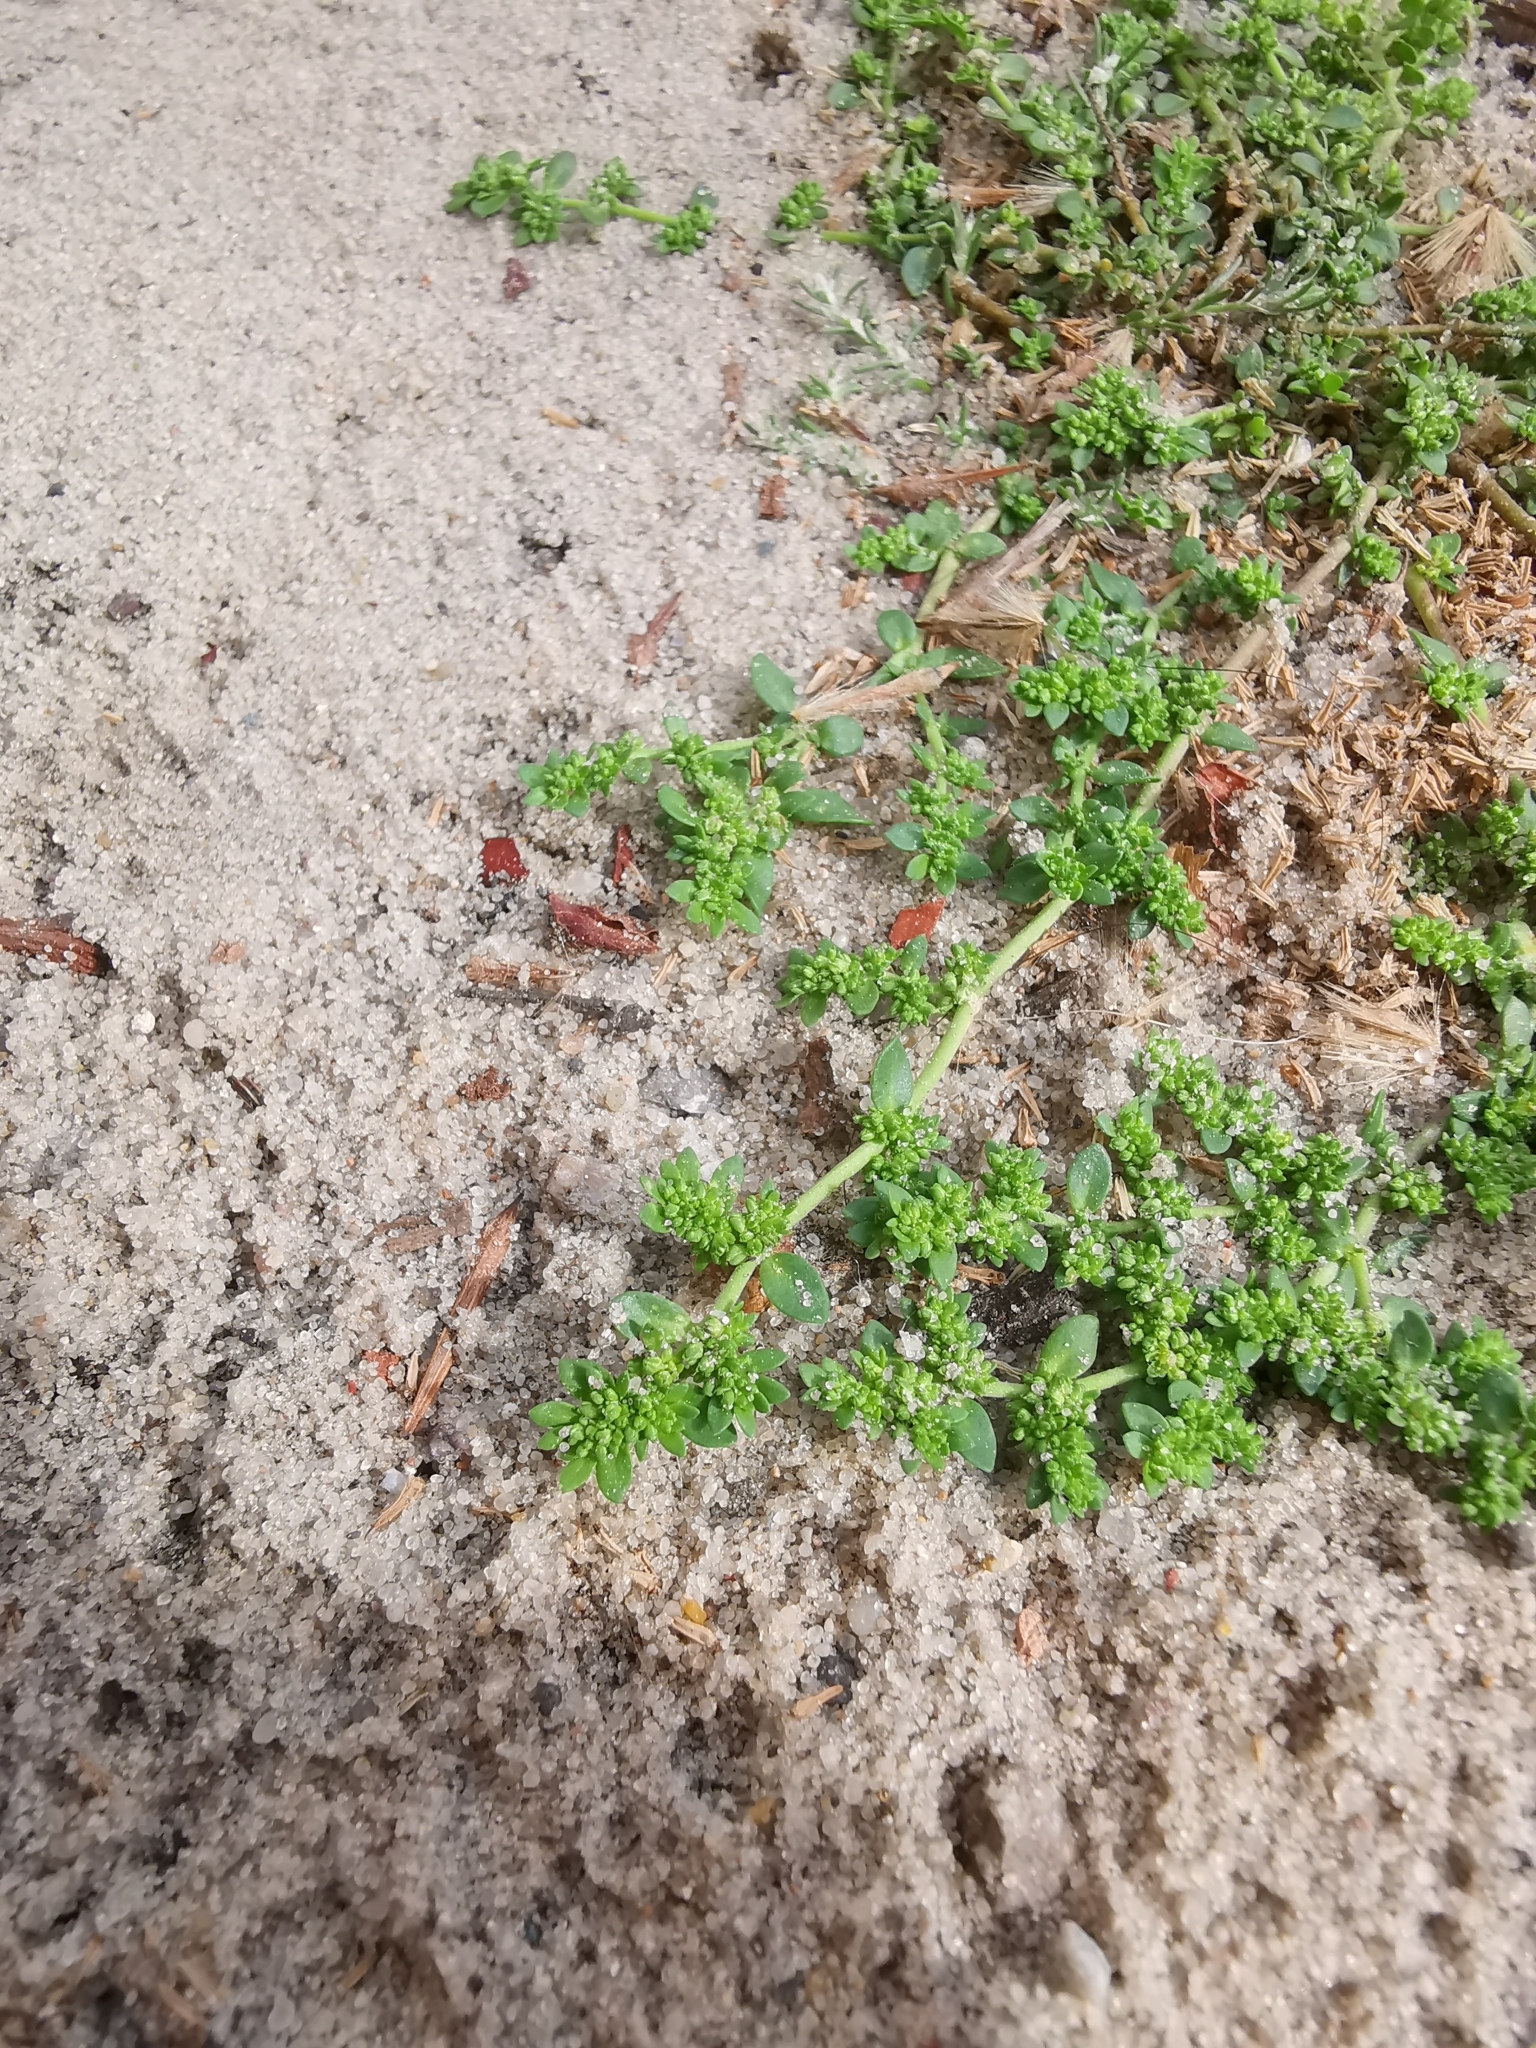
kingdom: Plantae
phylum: Tracheophyta
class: Magnoliopsida
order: Caryophyllales
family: Caryophyllaceae
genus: Herniaria
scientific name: Herniaria glabra
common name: Smooth rupturewort
